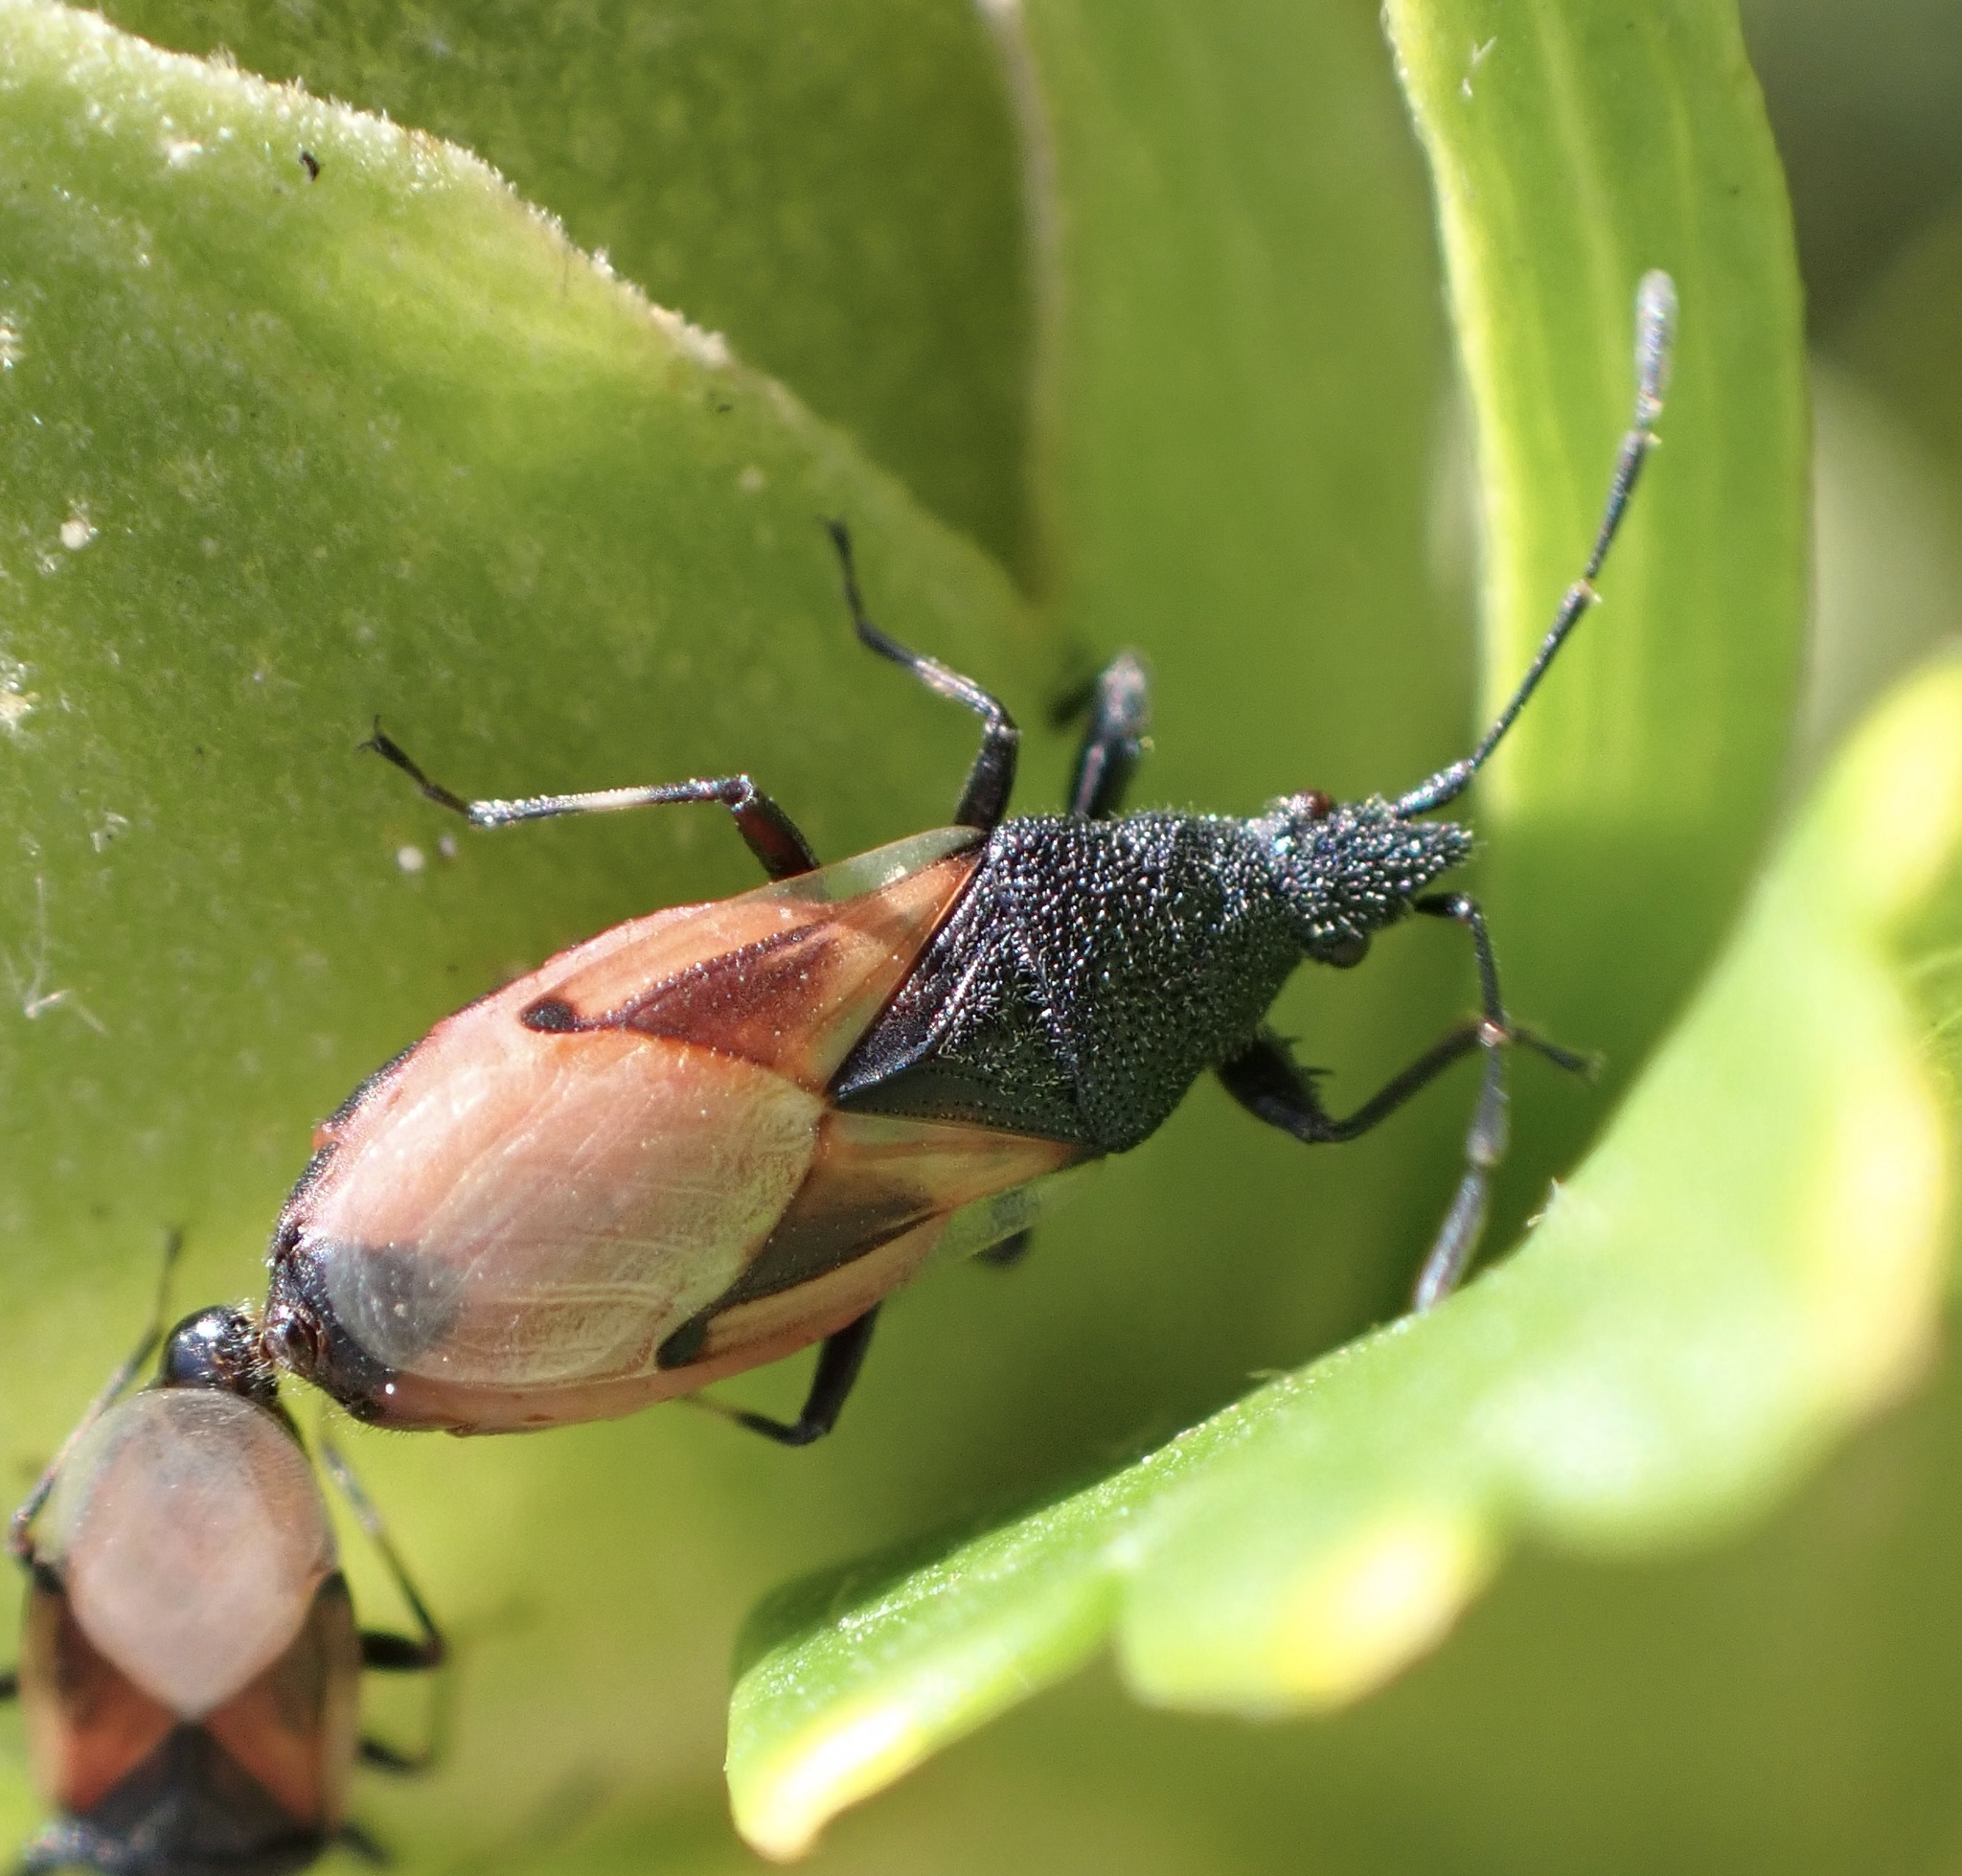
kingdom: Animalia
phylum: Arthropoda
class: Insecta
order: Hemiptera
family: Oxycarenidae
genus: Oxycarenus
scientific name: Oxycarenus lavaterae
